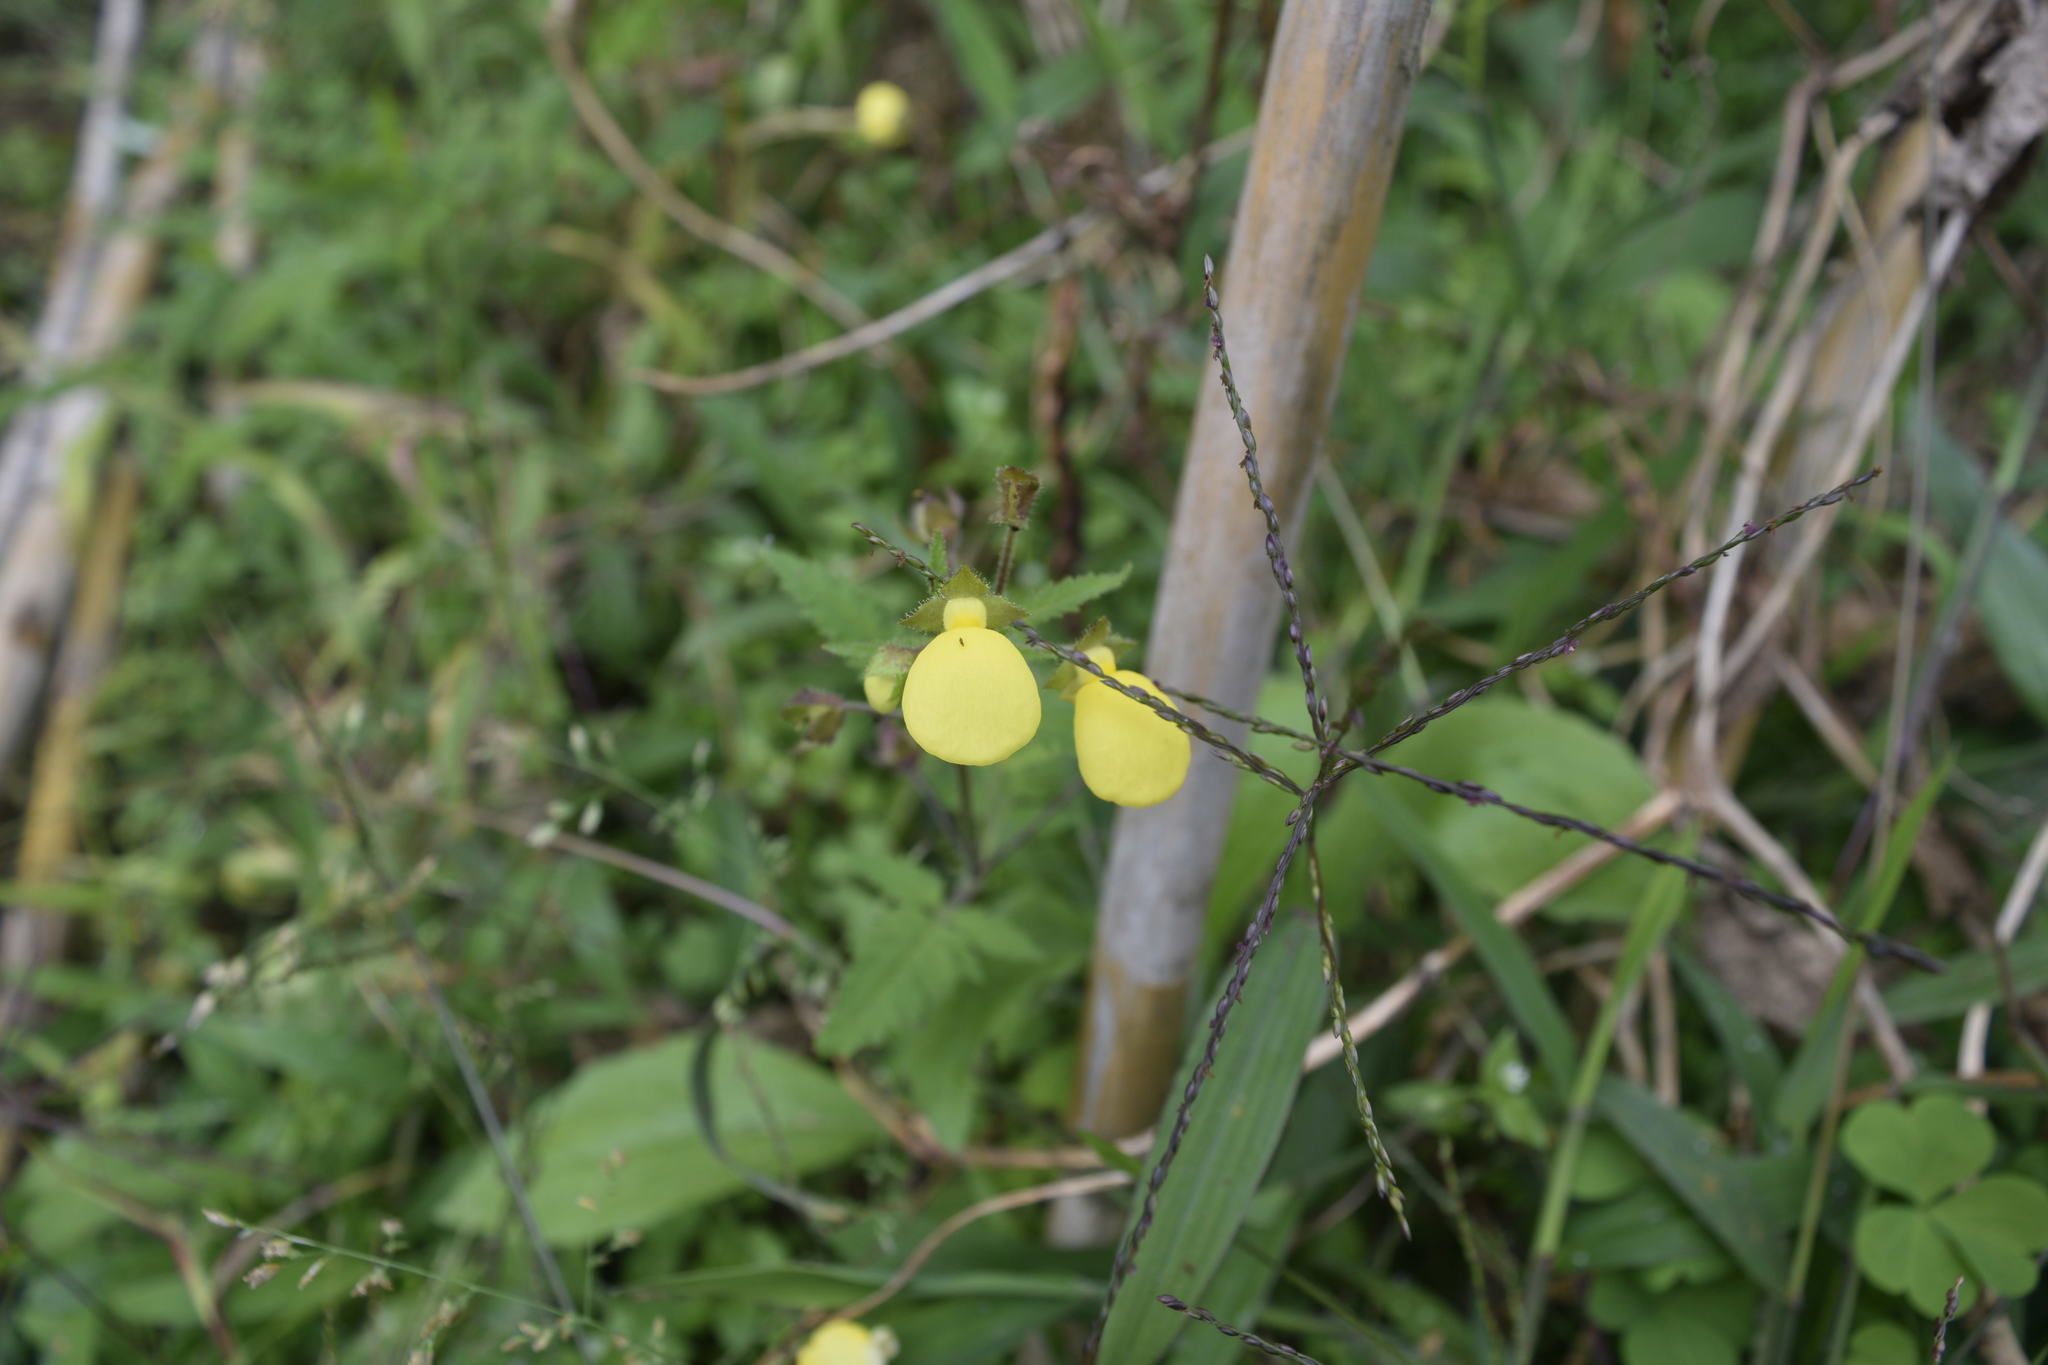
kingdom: Plantae
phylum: Tracheophyta
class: Magnoliopsida
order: Lamiales
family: Calceolariaceae
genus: Calceolaria
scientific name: Calceolaria tripartita
